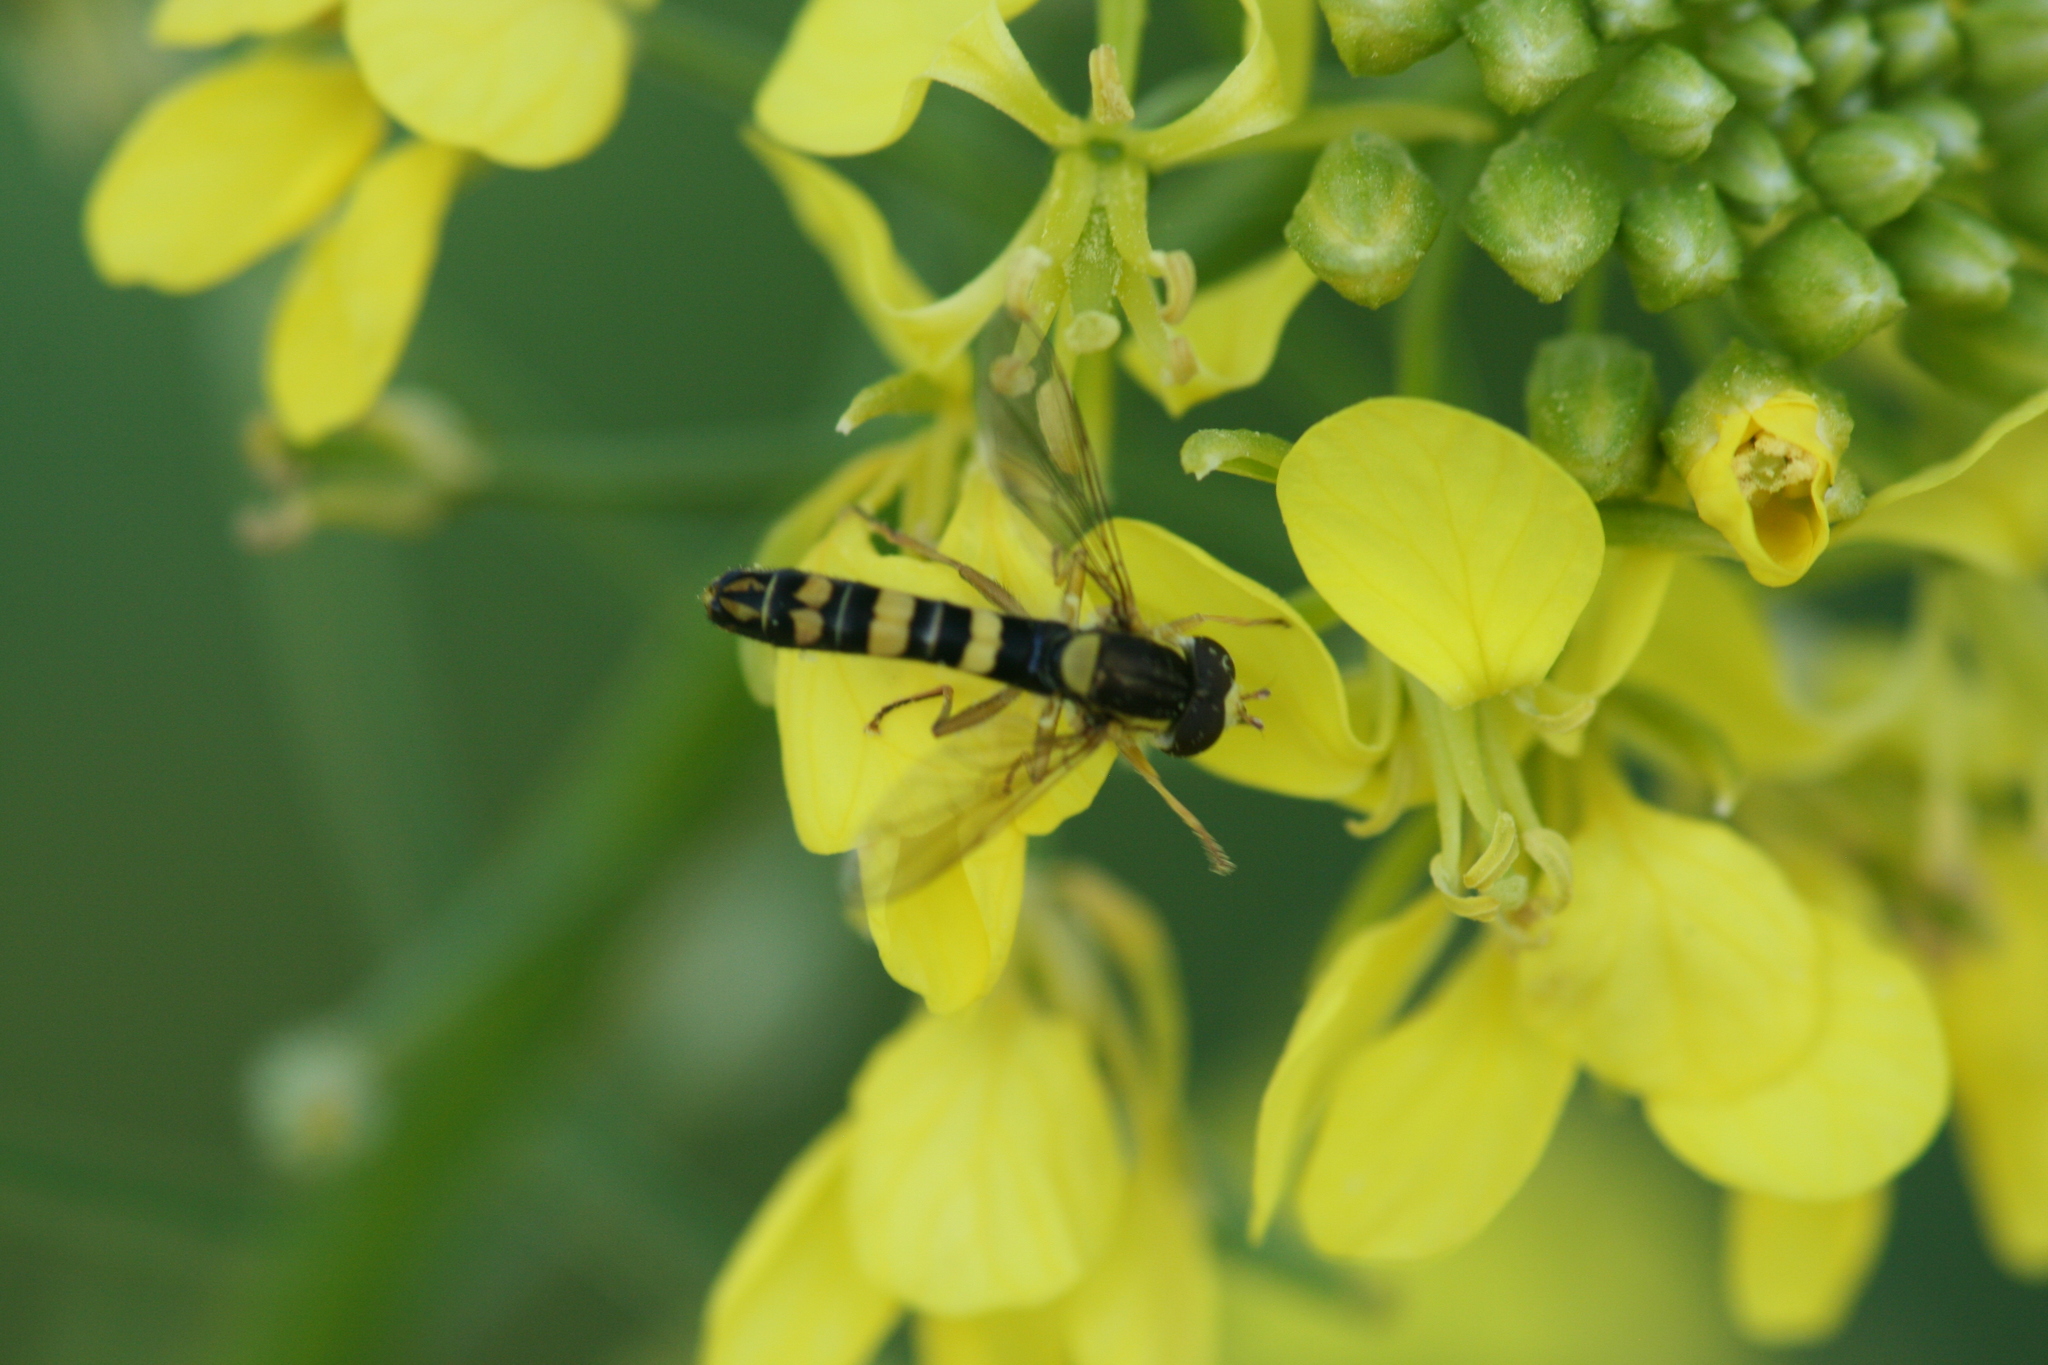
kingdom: Animalia
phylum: Arthropoda
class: Insecta
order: Diptera
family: Syrphidae
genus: Sphaerophoria
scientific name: Sphaerophoria
